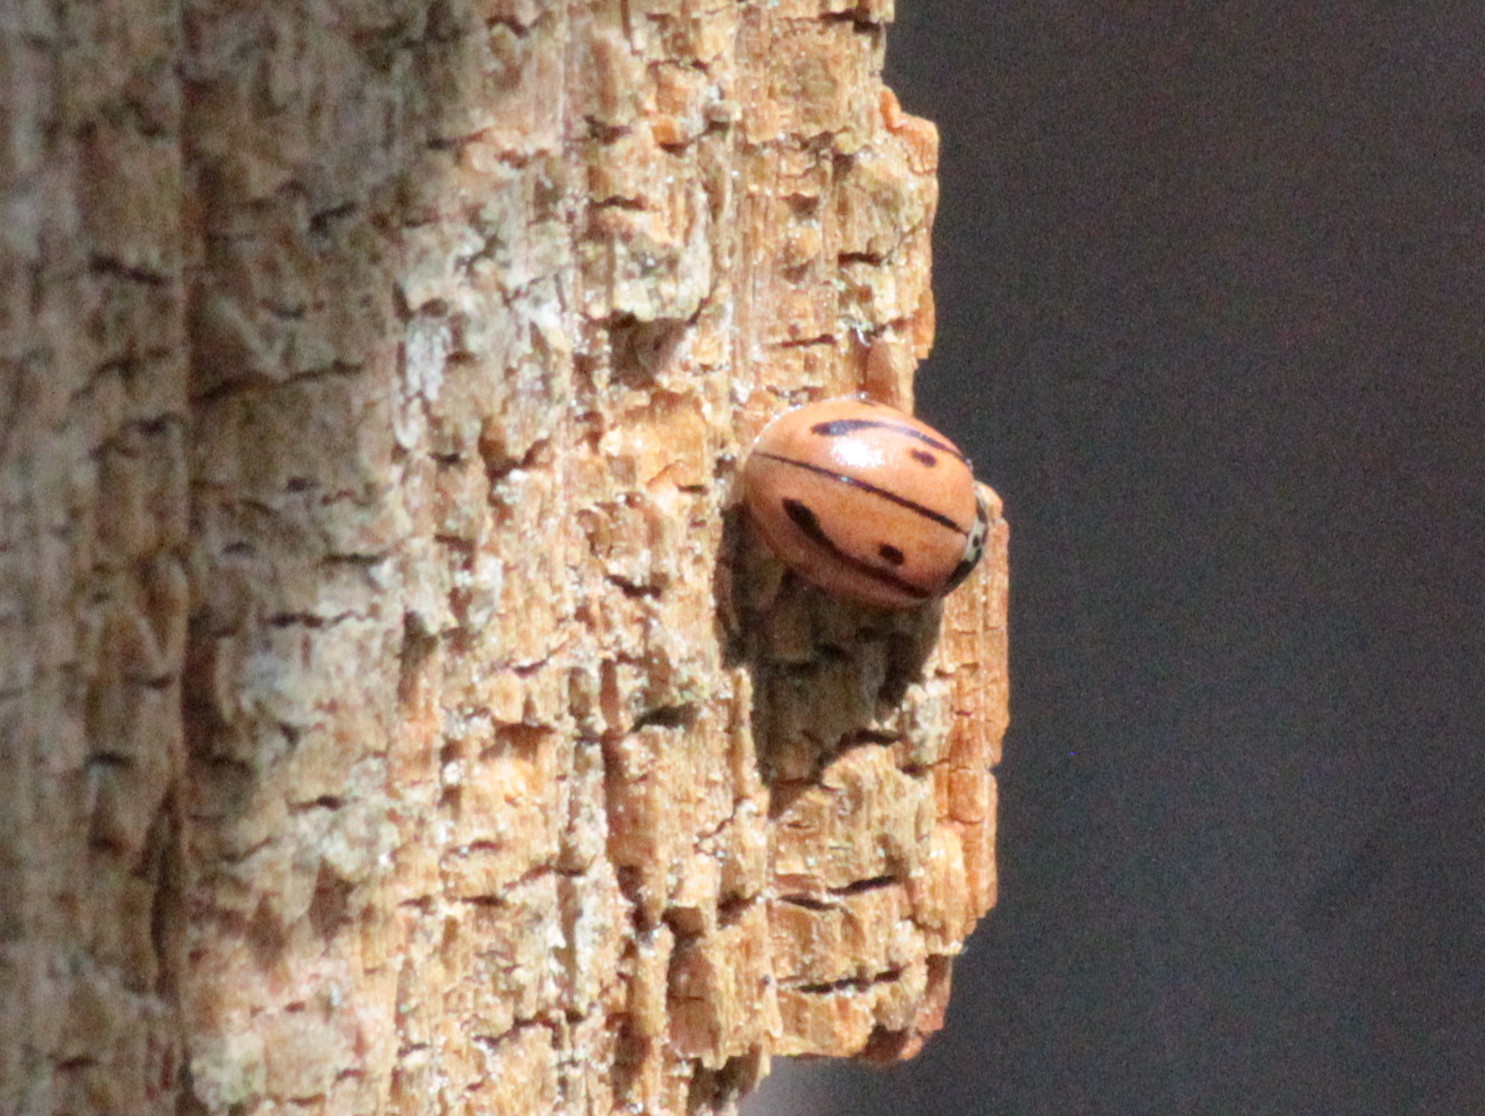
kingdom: Animalia
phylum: Arthropoda
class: Insecta
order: Coleoptera
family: Coccinellidae
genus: Mulsantina
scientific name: Mulsantina hudsonica
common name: Hudsonian ladybird
